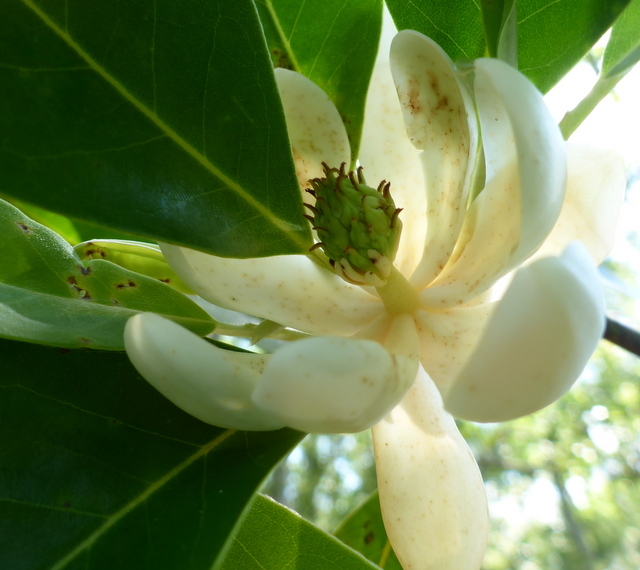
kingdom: Plantae
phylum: Tracheophyta
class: Magnoliopsida
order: Magnoliales
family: Magnoliaceae
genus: Magnolia
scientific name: Magnolia virginiana
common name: Swamp bay
